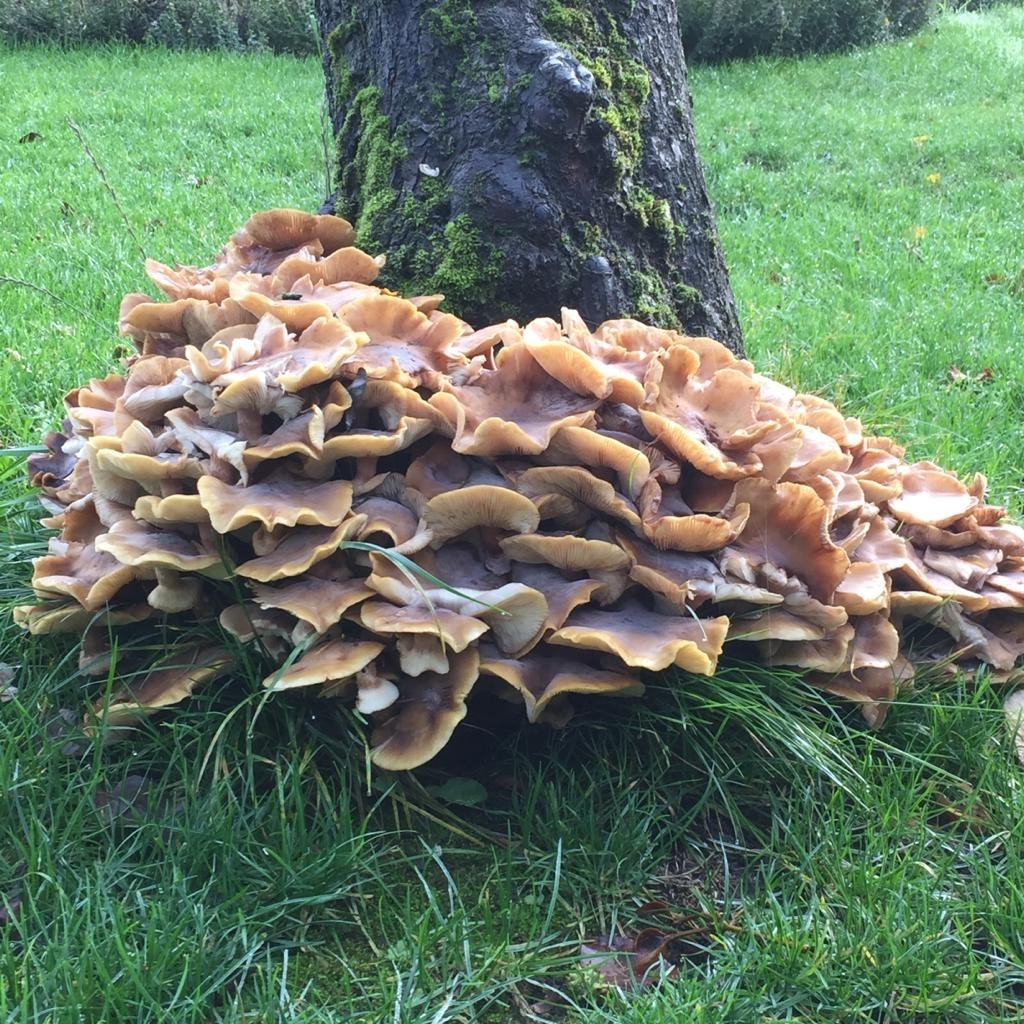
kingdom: Fungi
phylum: Basidiomycota
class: Agaricomycetes
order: Agaricales
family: Physalacriaceae
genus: Armillaria
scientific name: Armillaria mellea
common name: Honey fungus
